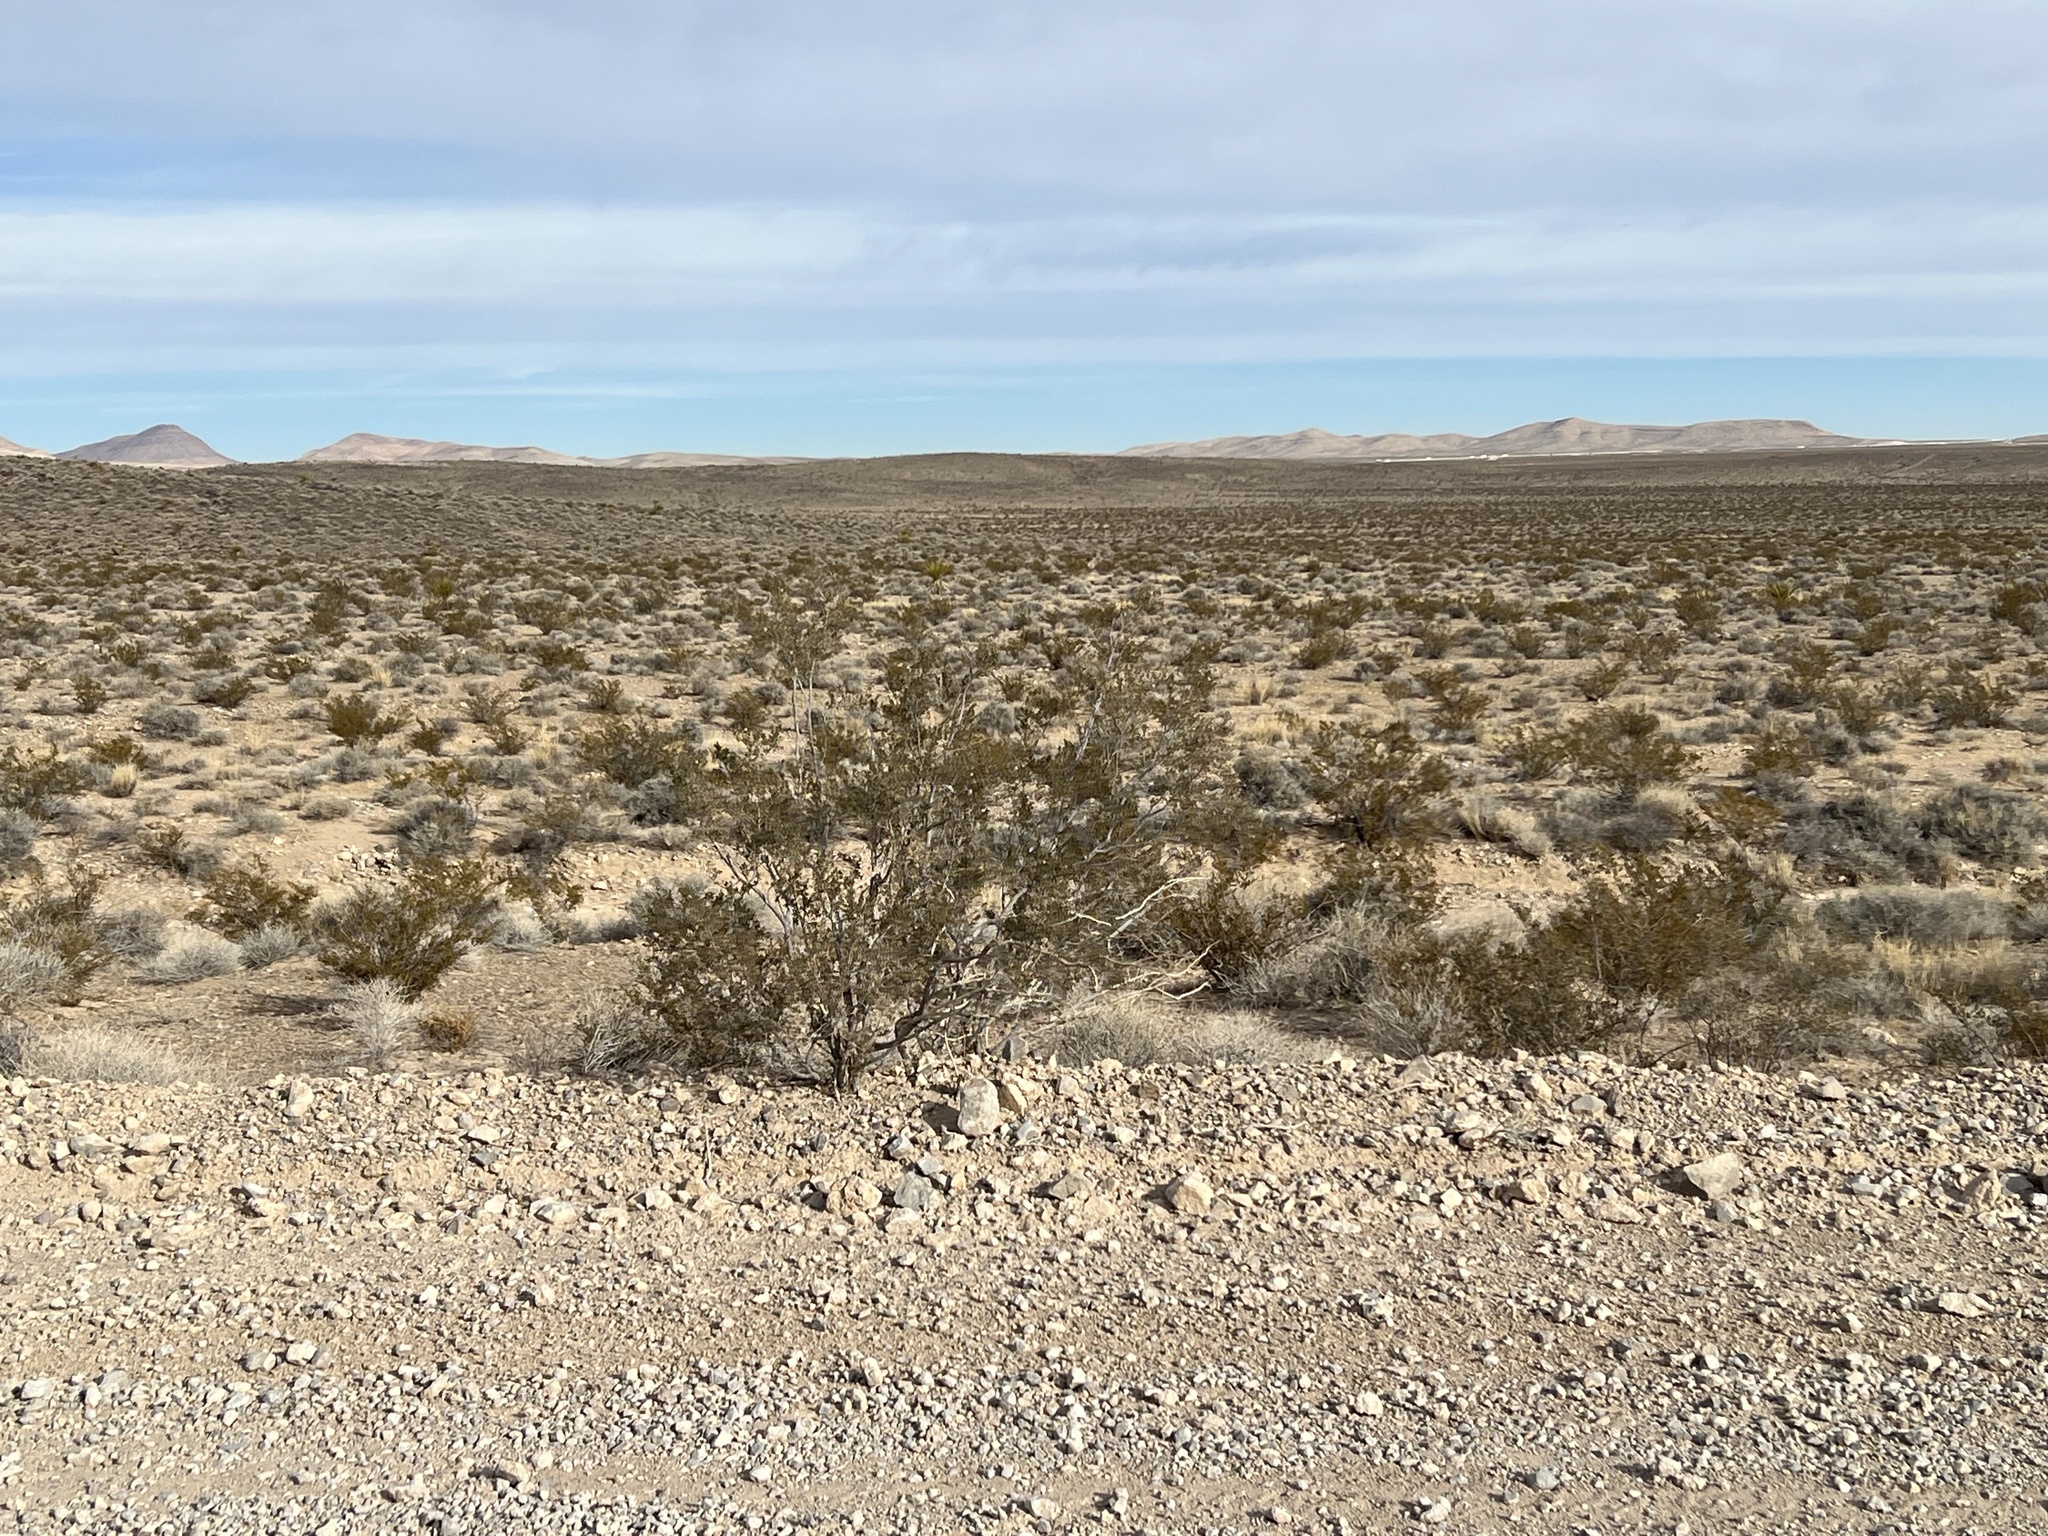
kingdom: Plantae
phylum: Tracheophyta
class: Magnoliopsida
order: Zygophyllales
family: Zygophyllaceae
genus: Larrea
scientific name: Larrea tridentata
